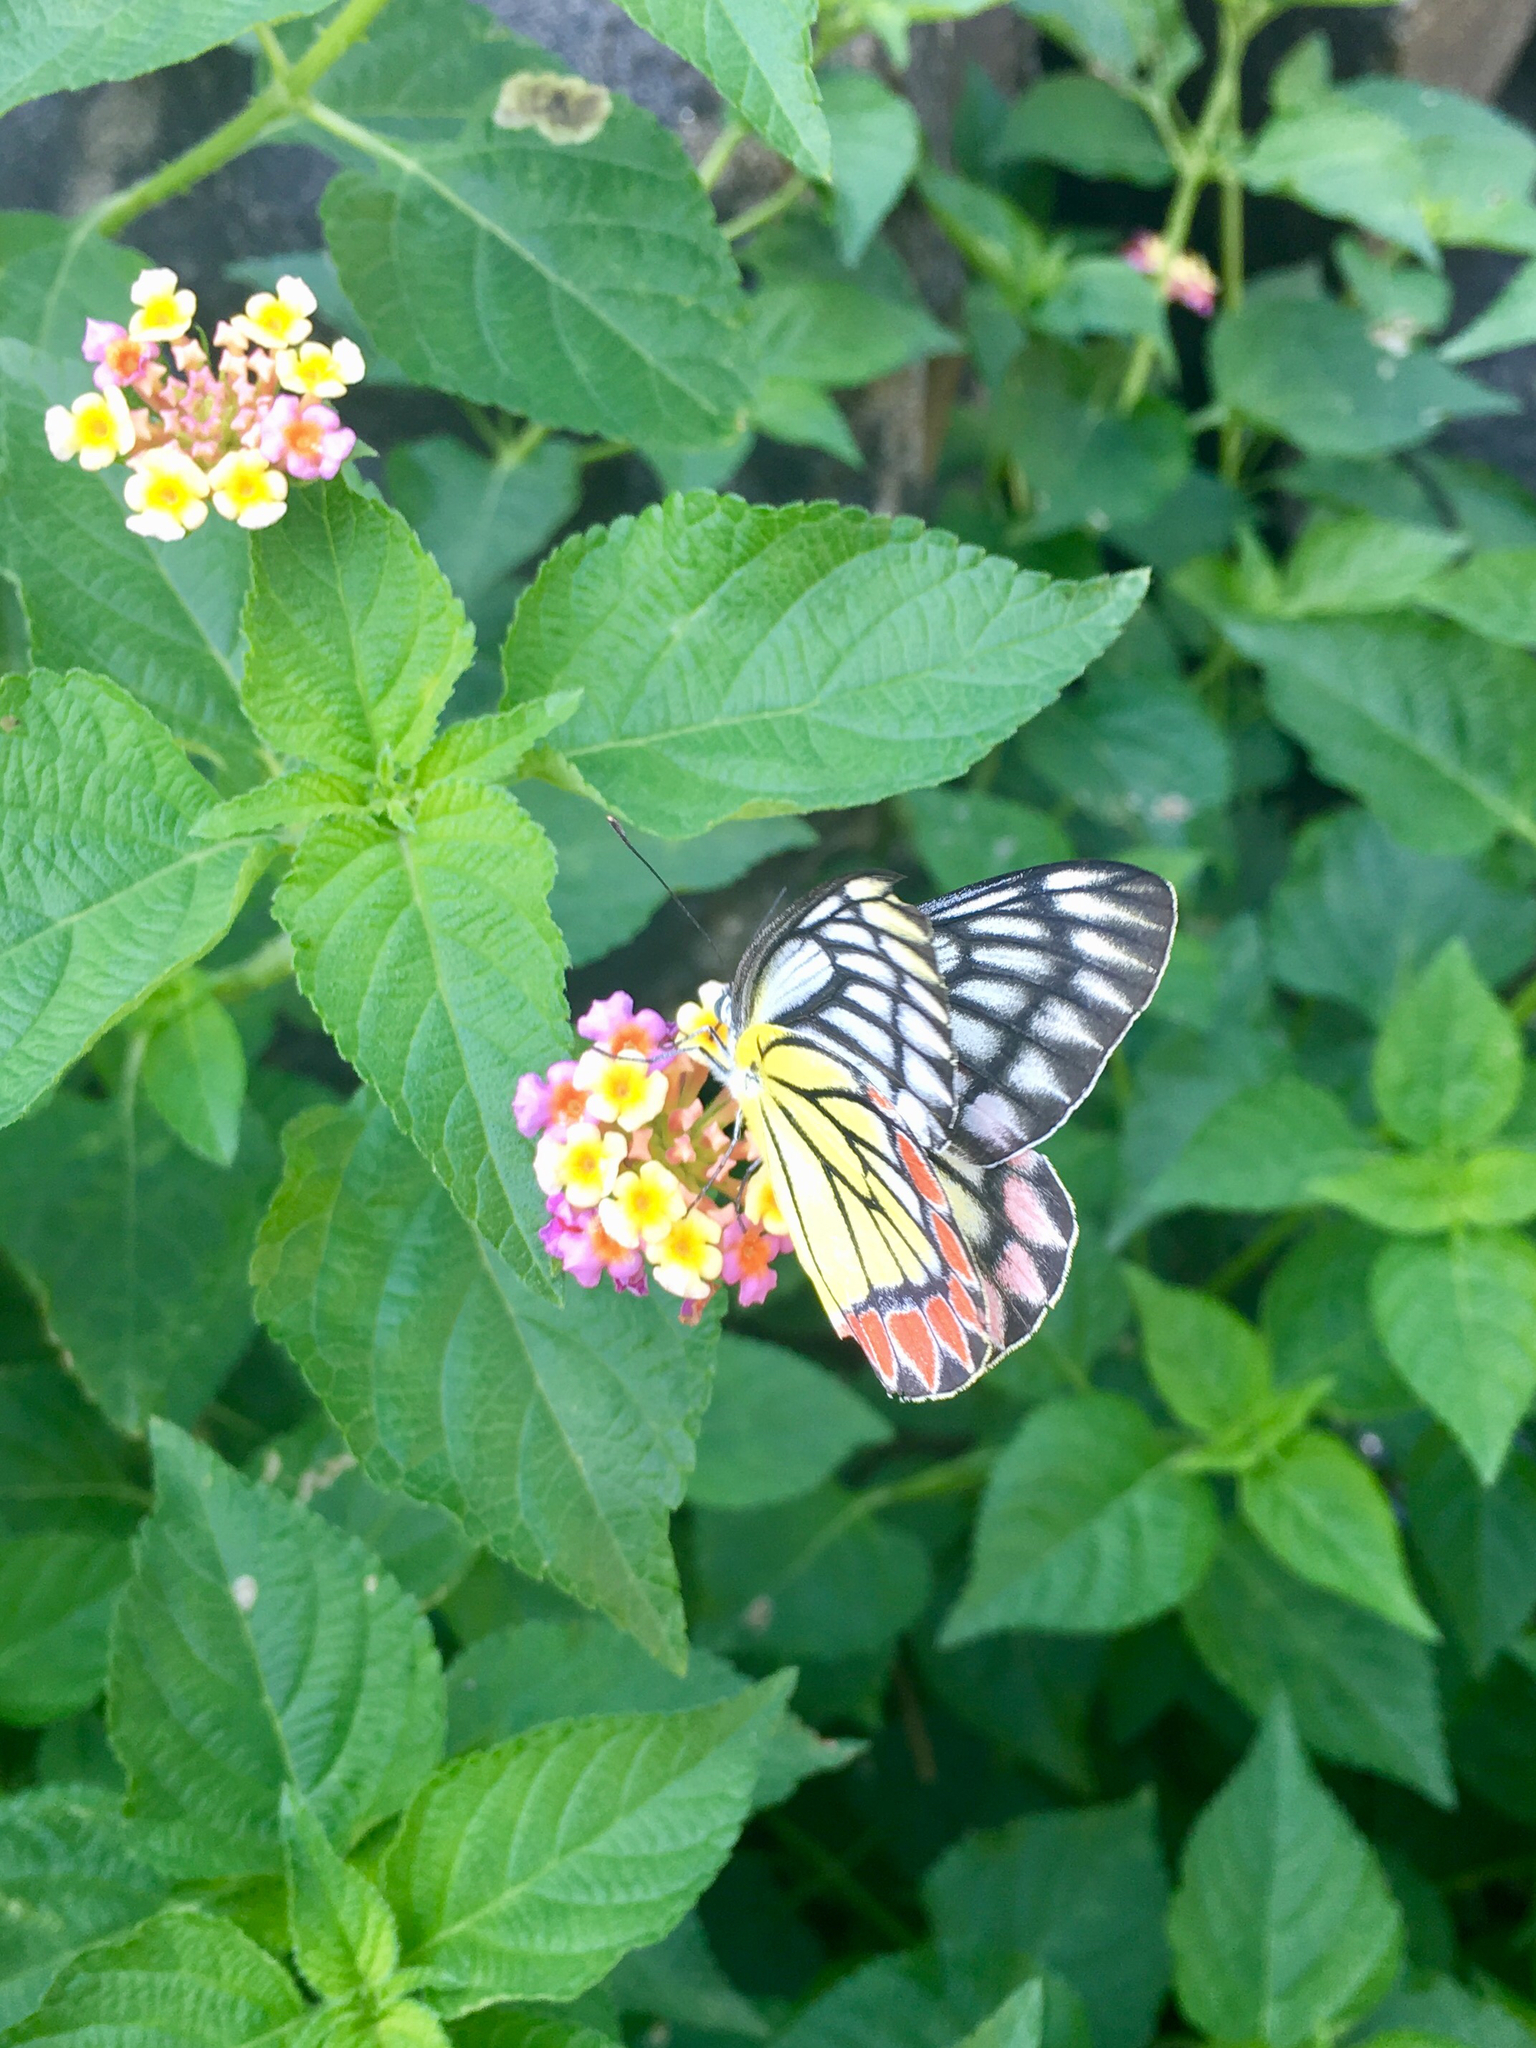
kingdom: Plantae
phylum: Tracheophyta
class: Magnoliopsida
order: Lamiales
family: Verbenaceae
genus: Lantana
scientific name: Lantana camara
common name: Lantana
